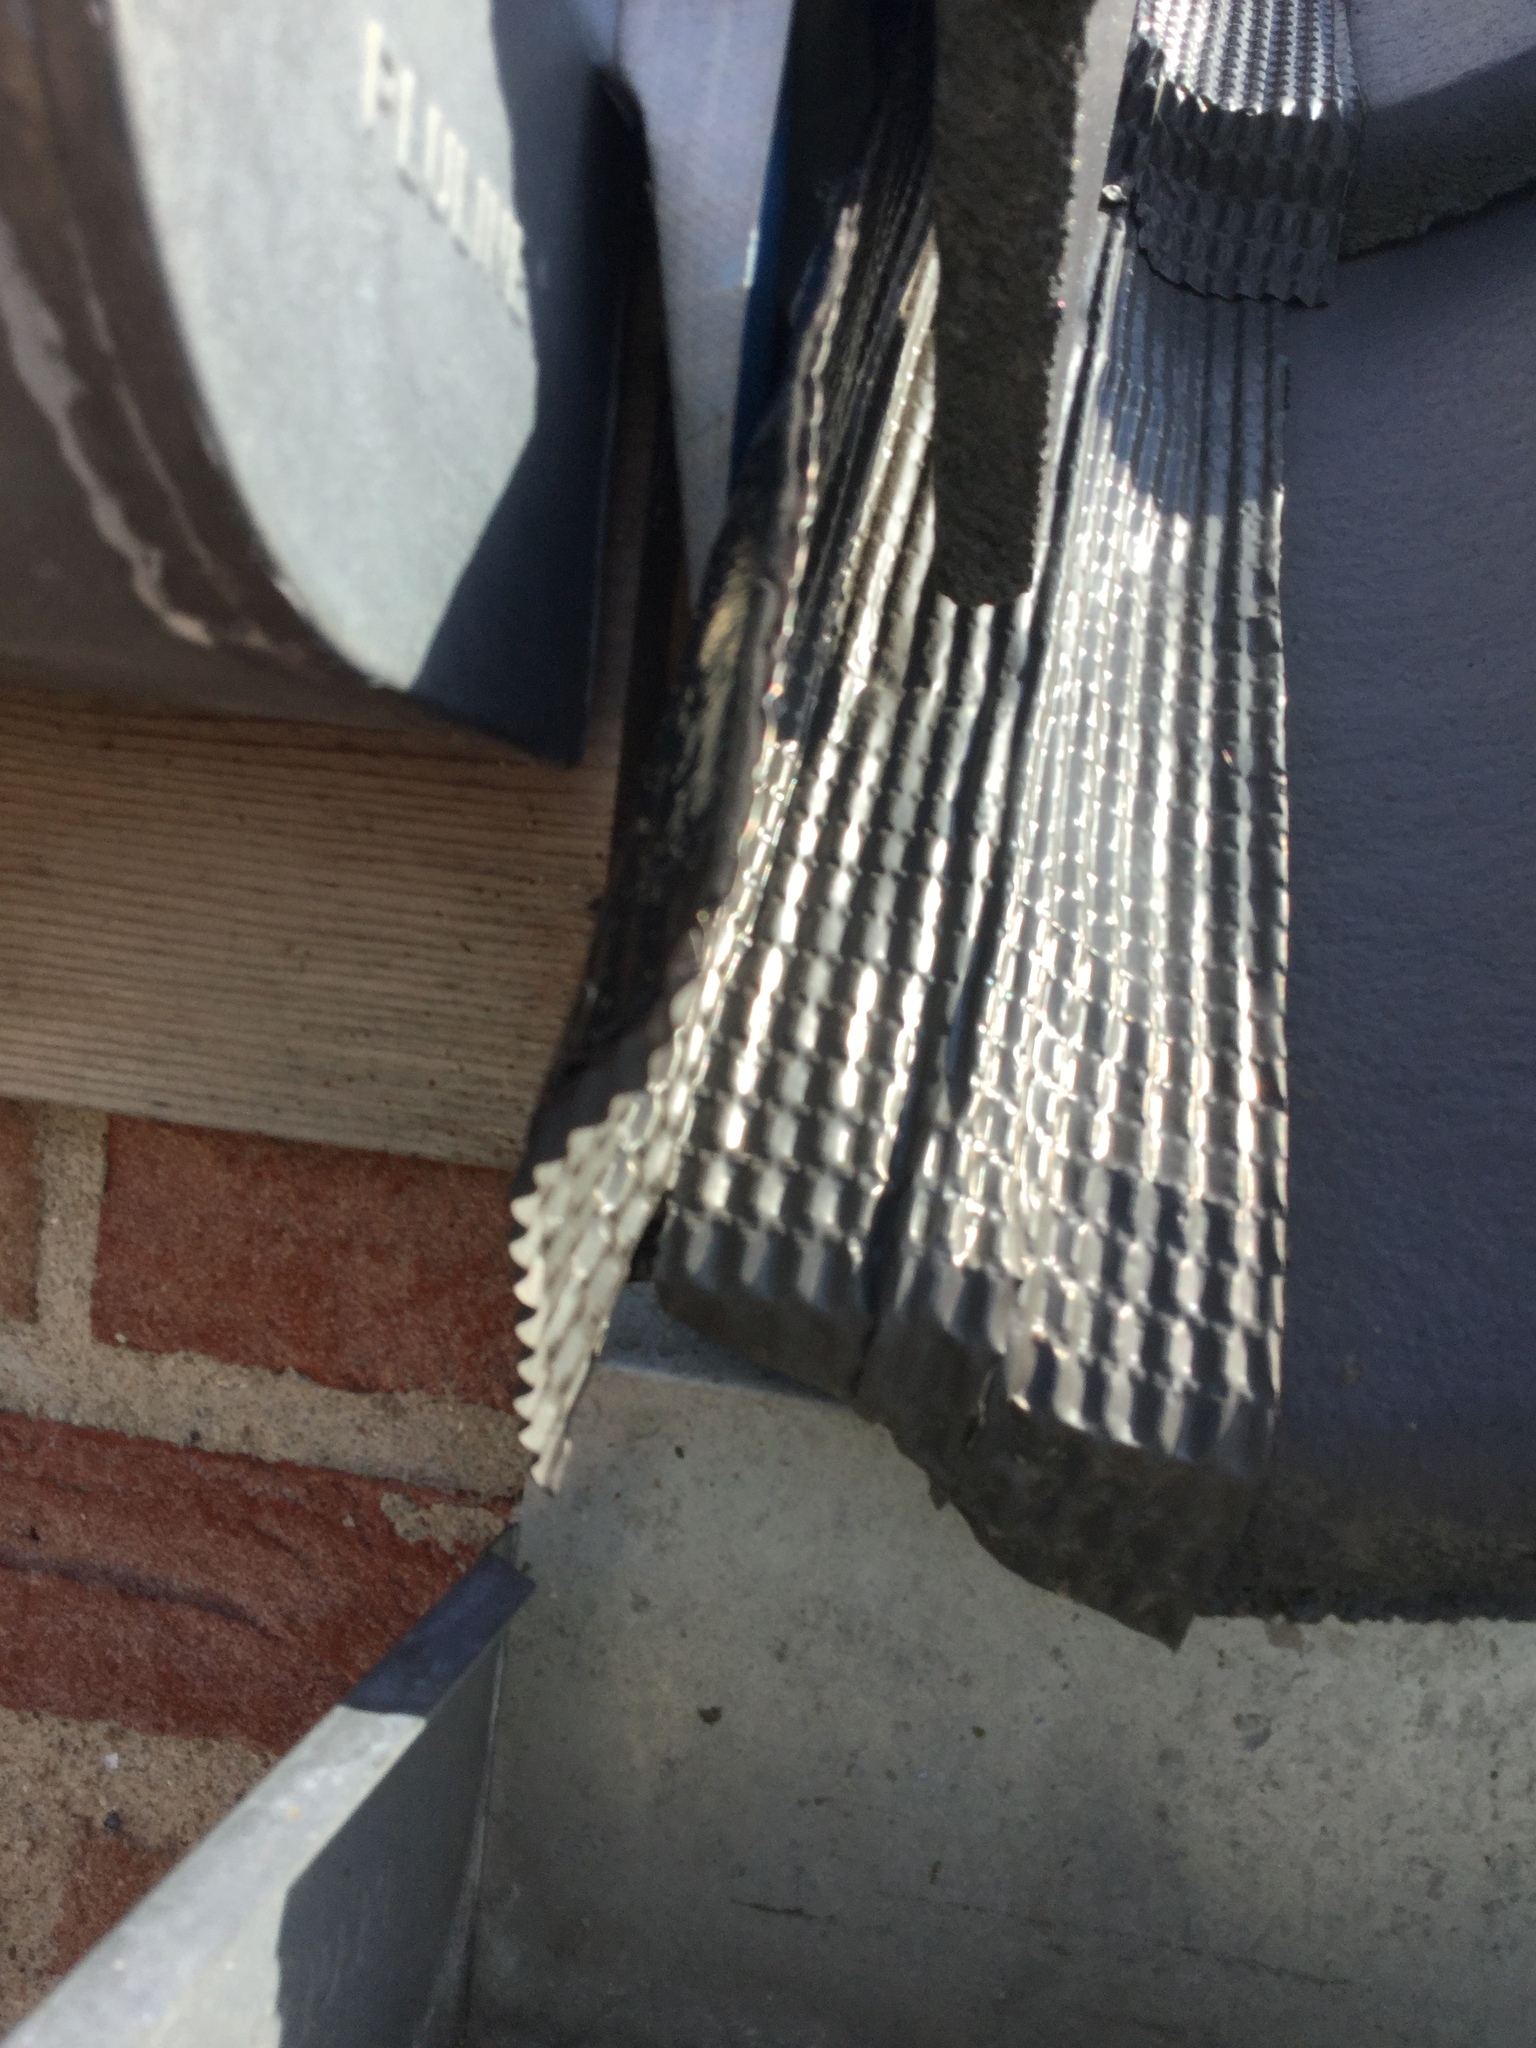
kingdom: Animalia
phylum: Arthropoda
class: Insecta
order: Hymenoptera
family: Vespidae
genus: Vespa
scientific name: Vespa crabro
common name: Hornet
